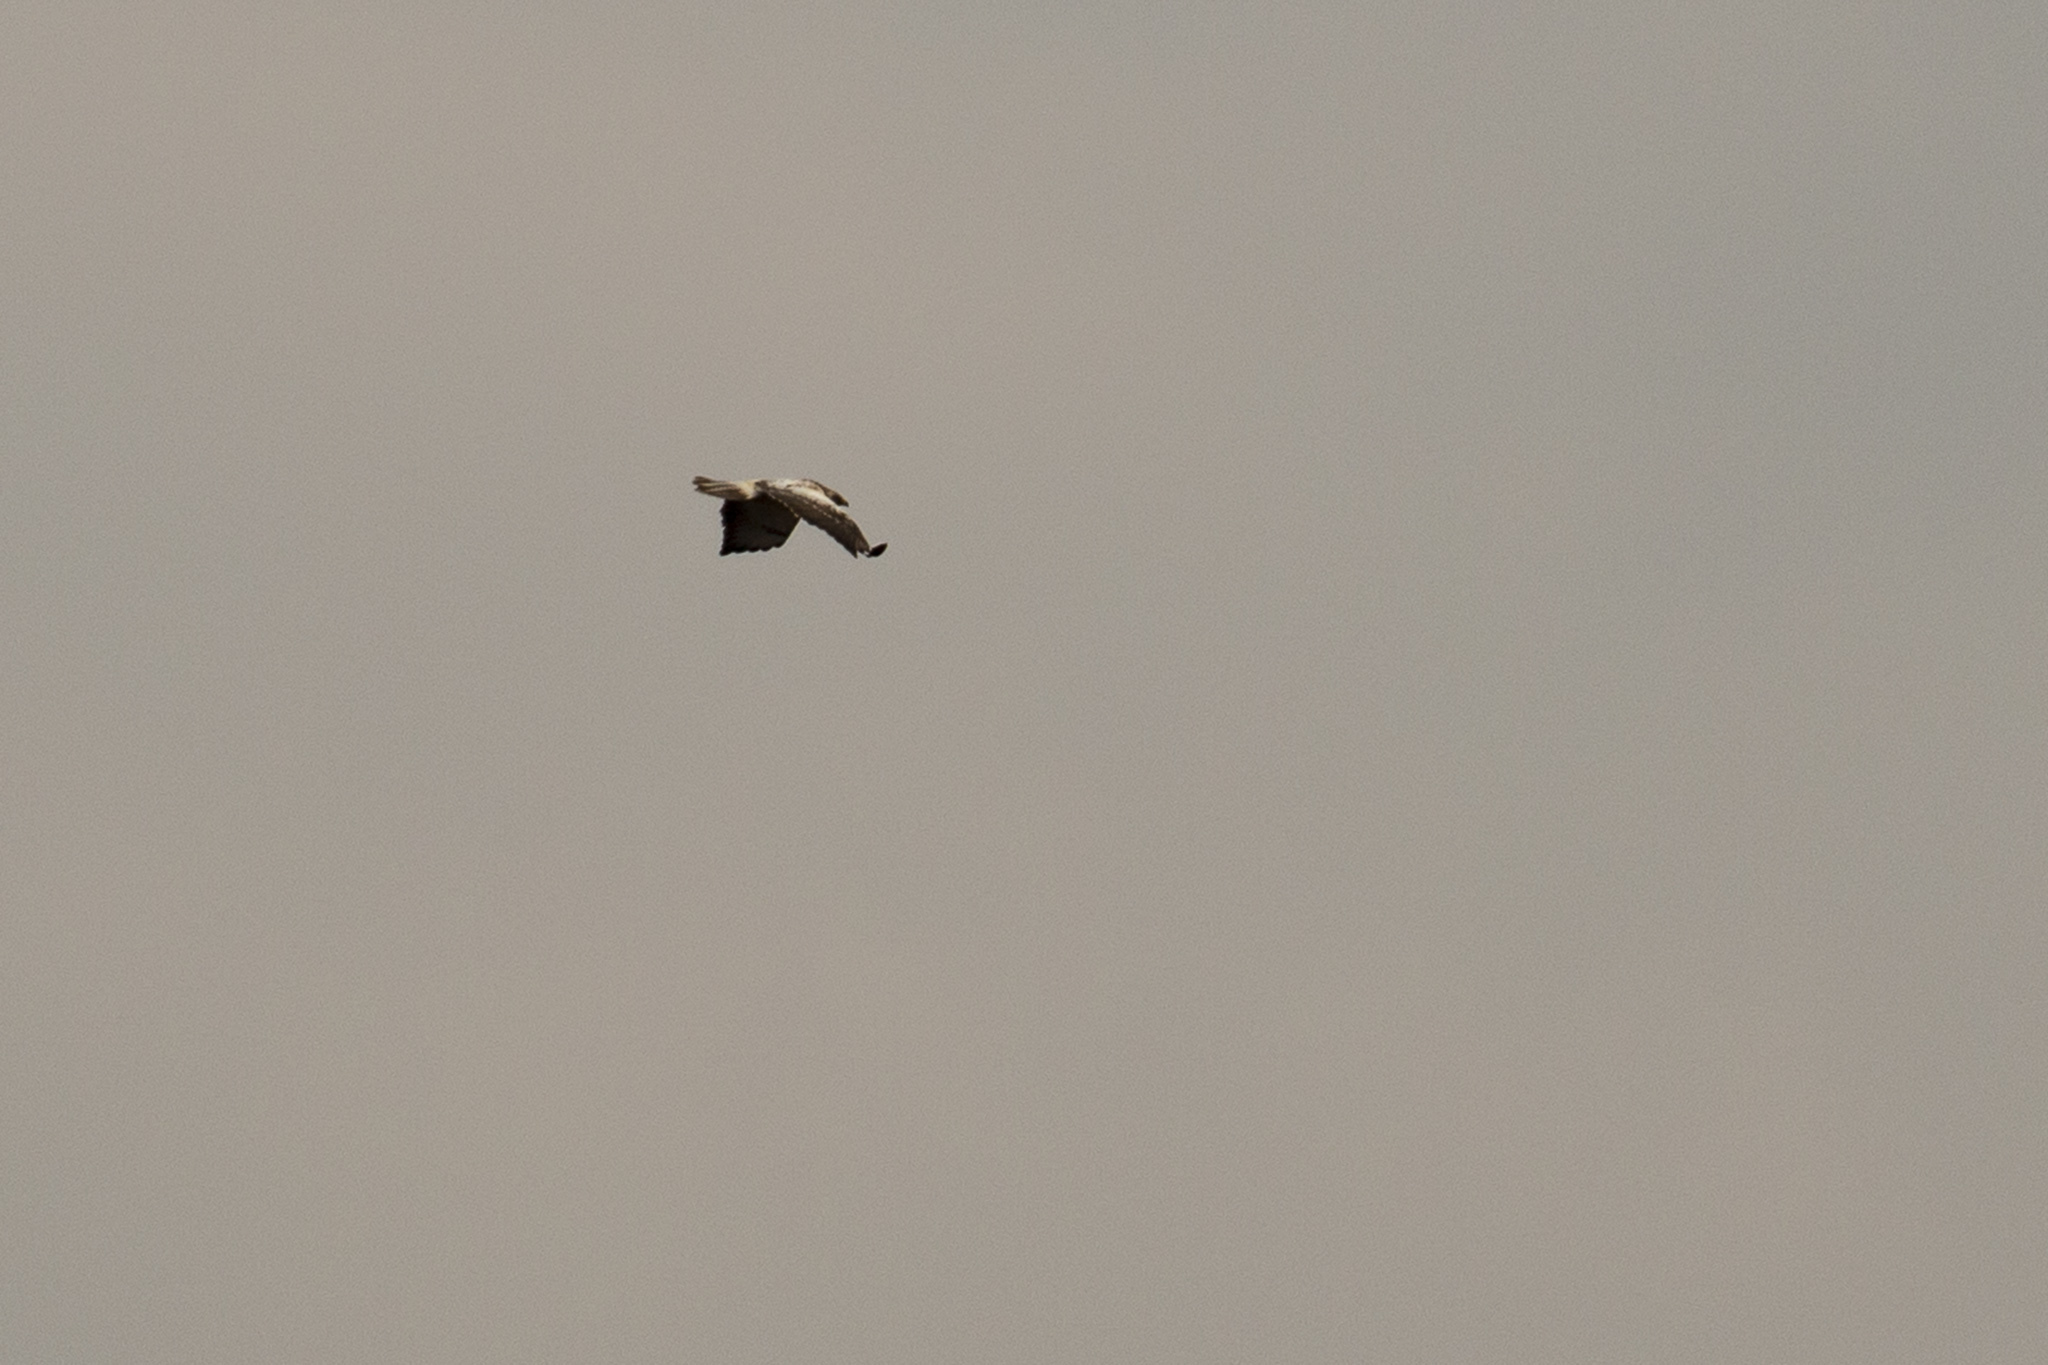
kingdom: Animalia
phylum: Chordata
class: Aves
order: Accipitriformes
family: Accipitridae
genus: Buteo
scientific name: Buteo buteo
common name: Common buzzard
